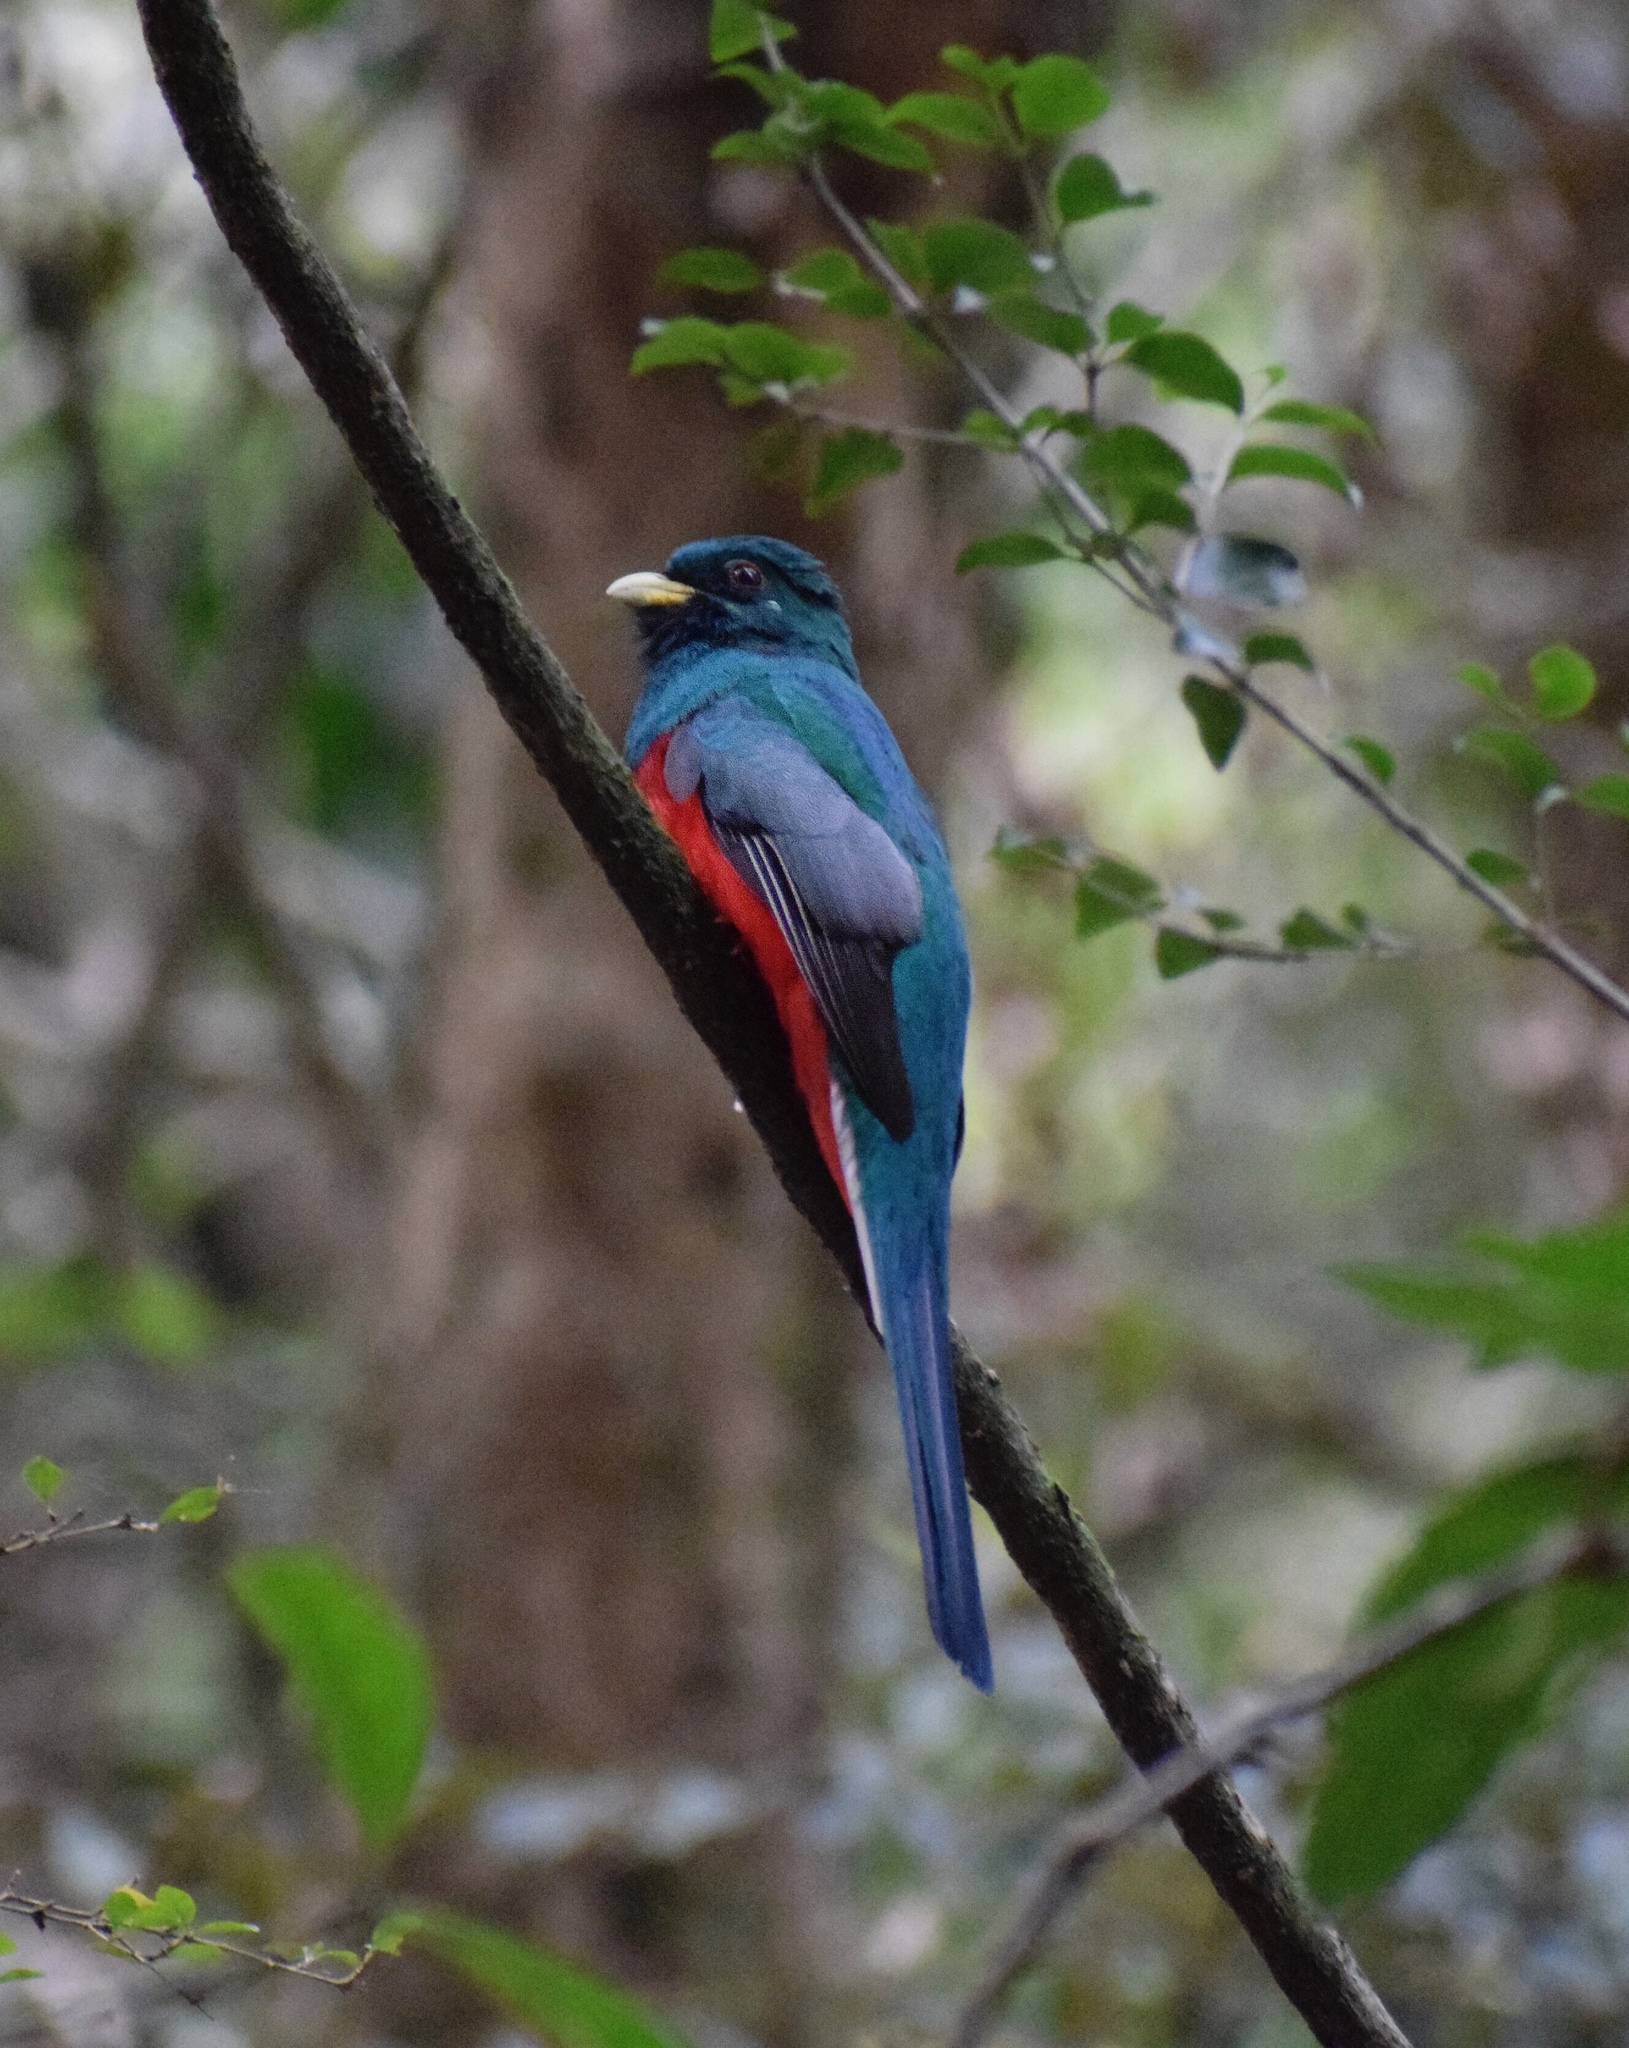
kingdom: Animalia
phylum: Chordata
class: Aves
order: Trogoniformes
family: Trogonidae
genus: Apaloderma
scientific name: Apaloderma narina
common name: Narina trogon
